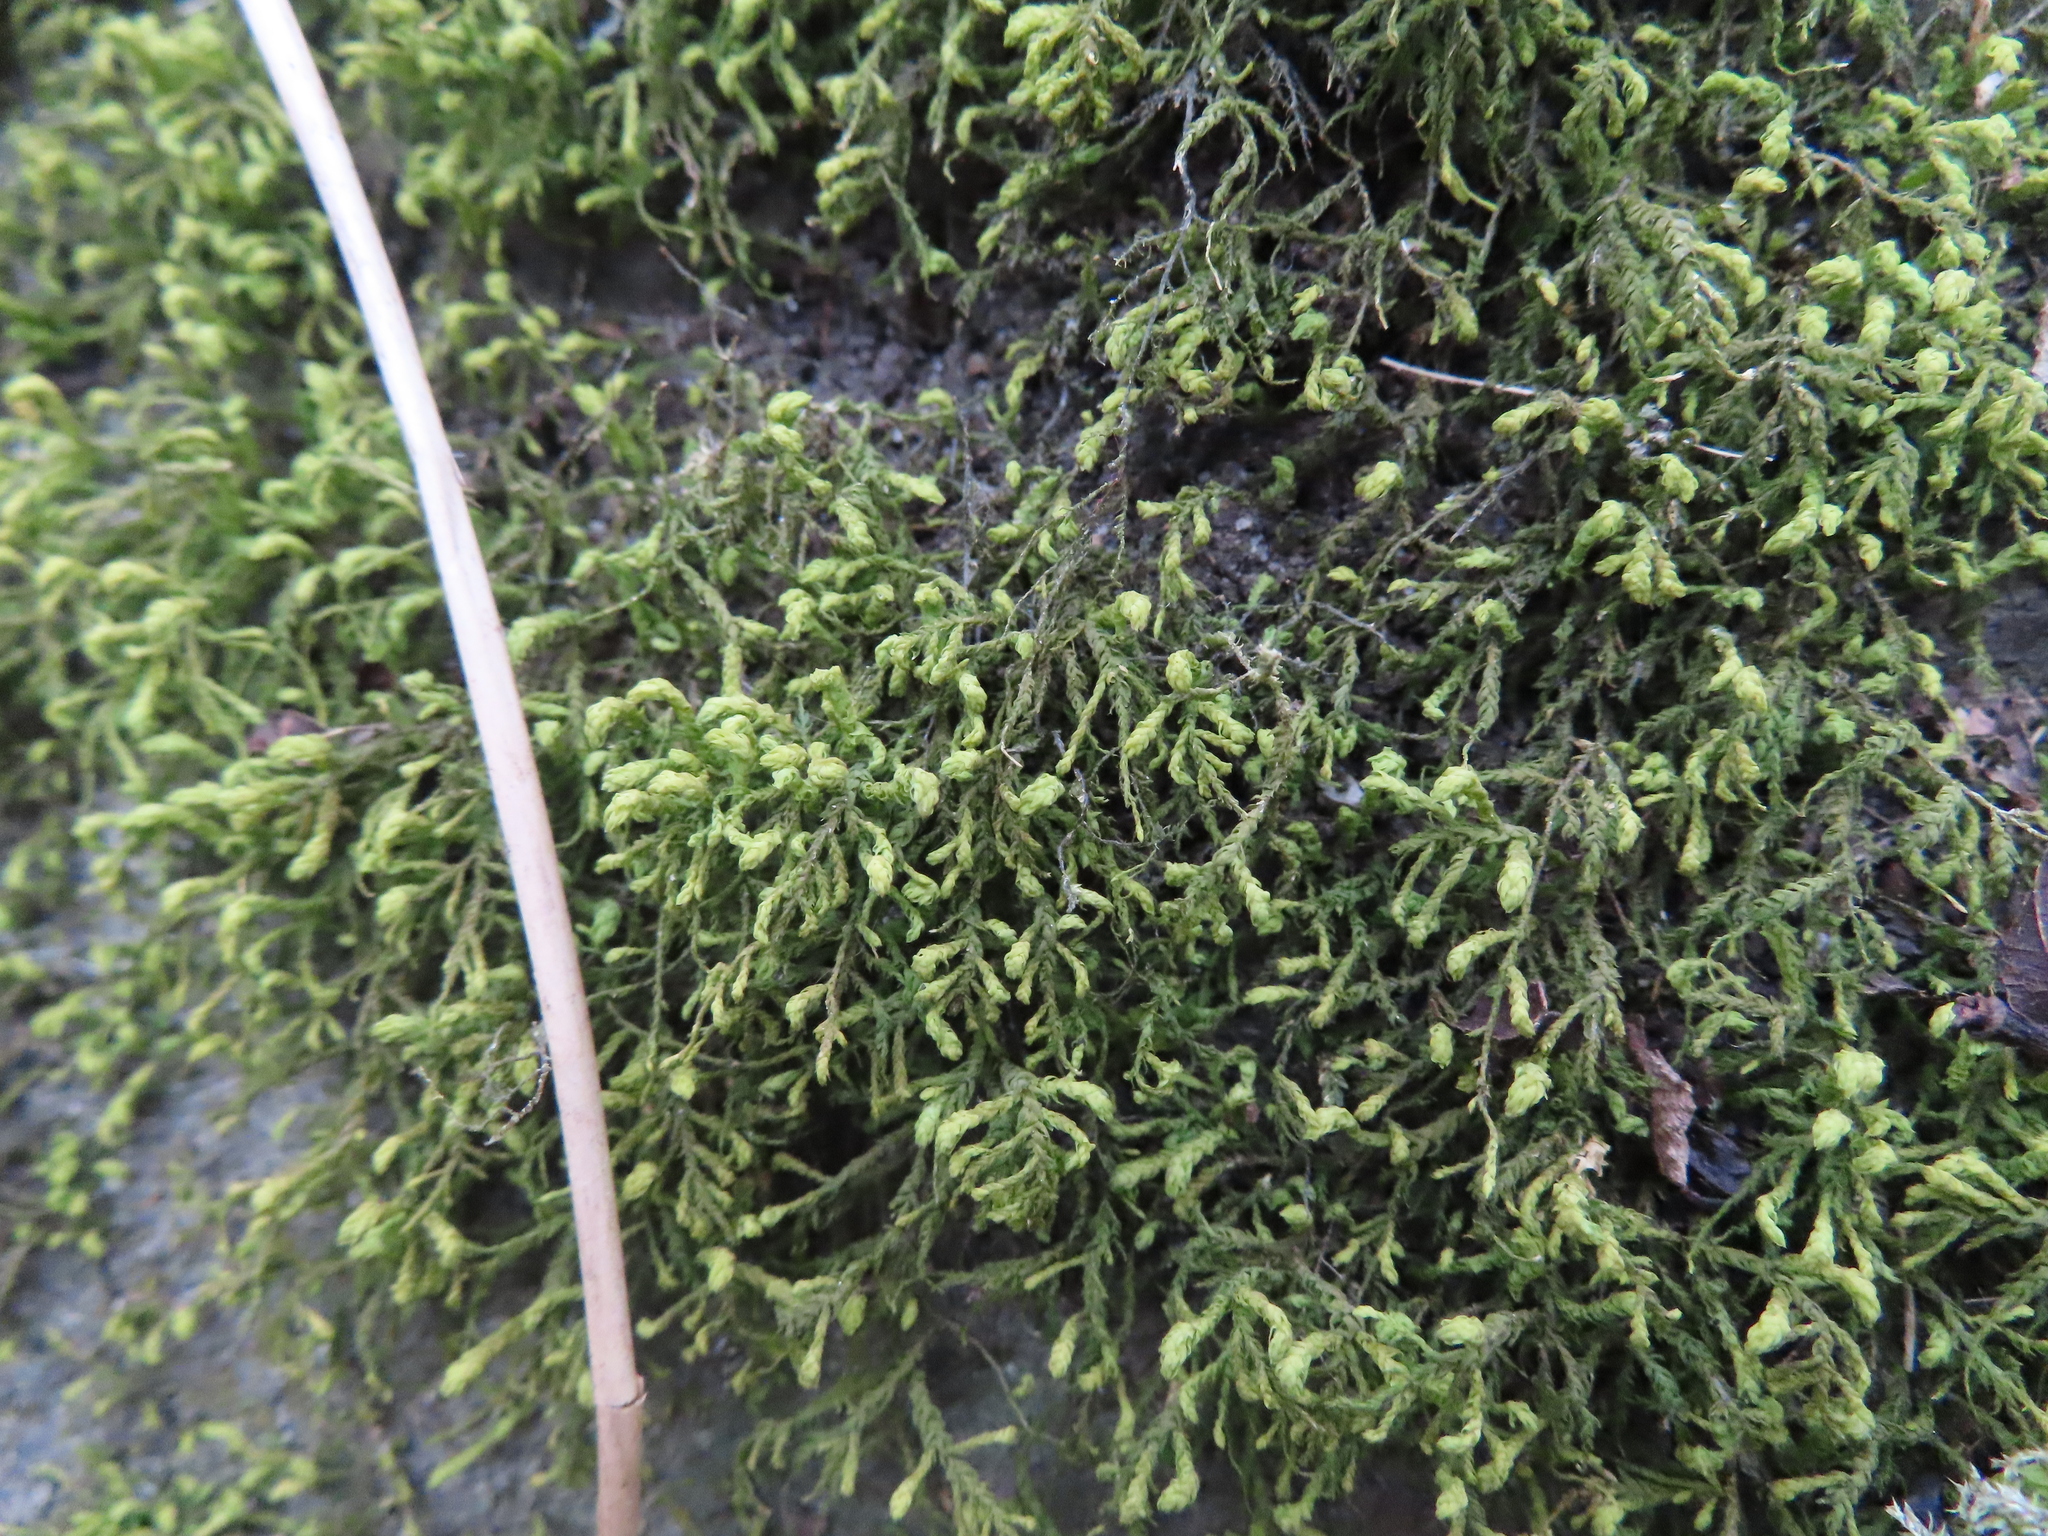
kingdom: Plantae
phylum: Bryophyta
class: Bryopsida
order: Hypnales
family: Neckeraceae
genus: Pseudanomodon
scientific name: Pseudanomodon attenuatus
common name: Tree-skirt moss
